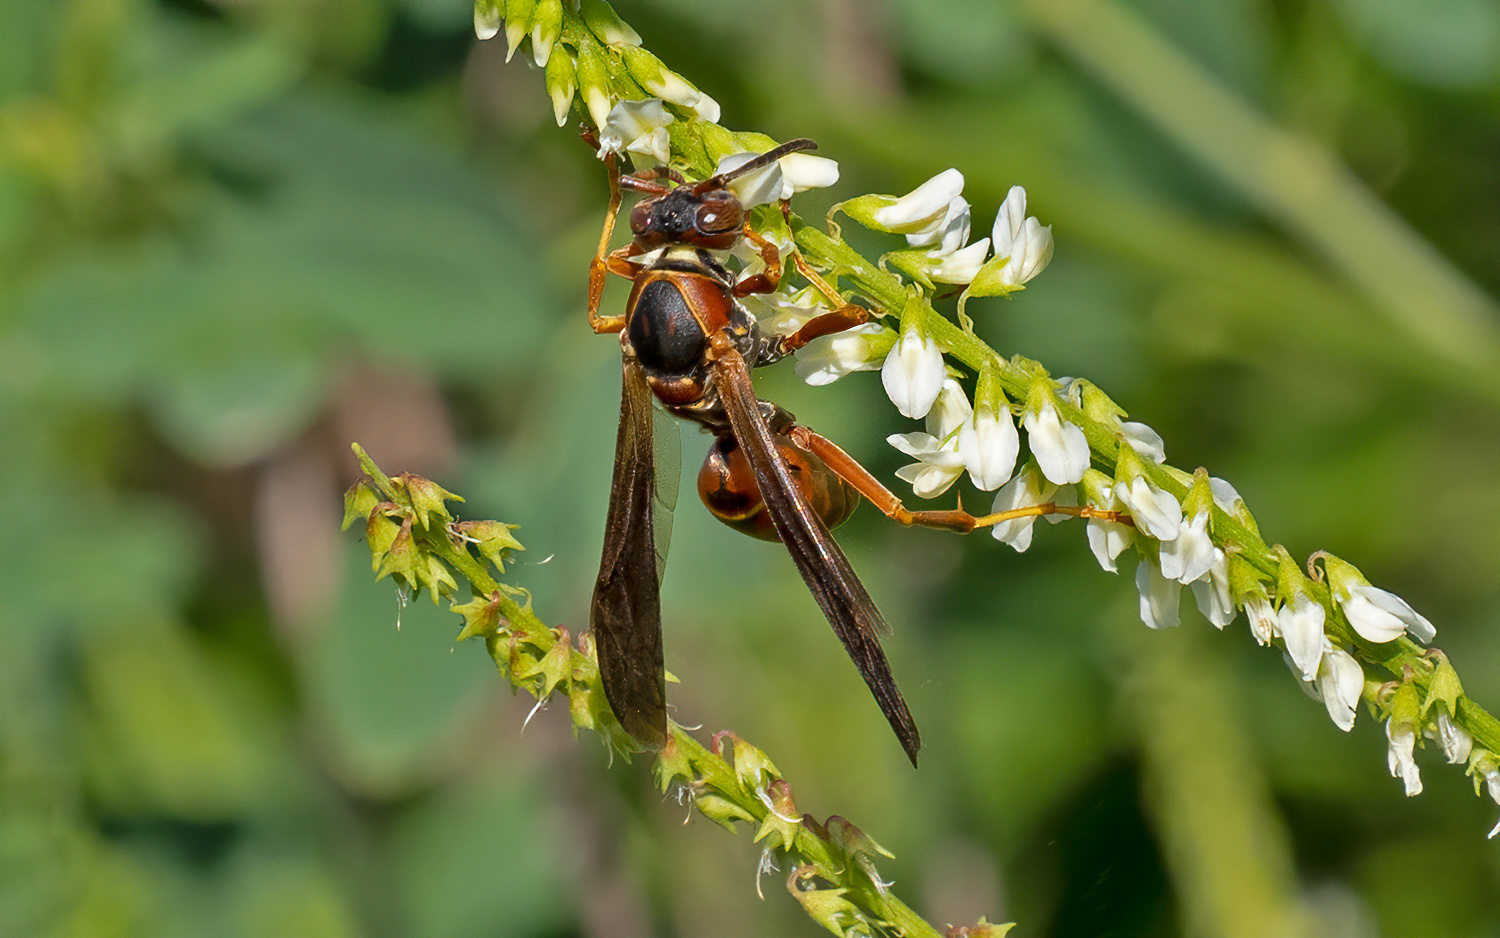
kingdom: Animalia
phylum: Arthropoda
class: Insecta
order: Hymenoptera
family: Eumenidae
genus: Polistes
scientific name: Polistes
